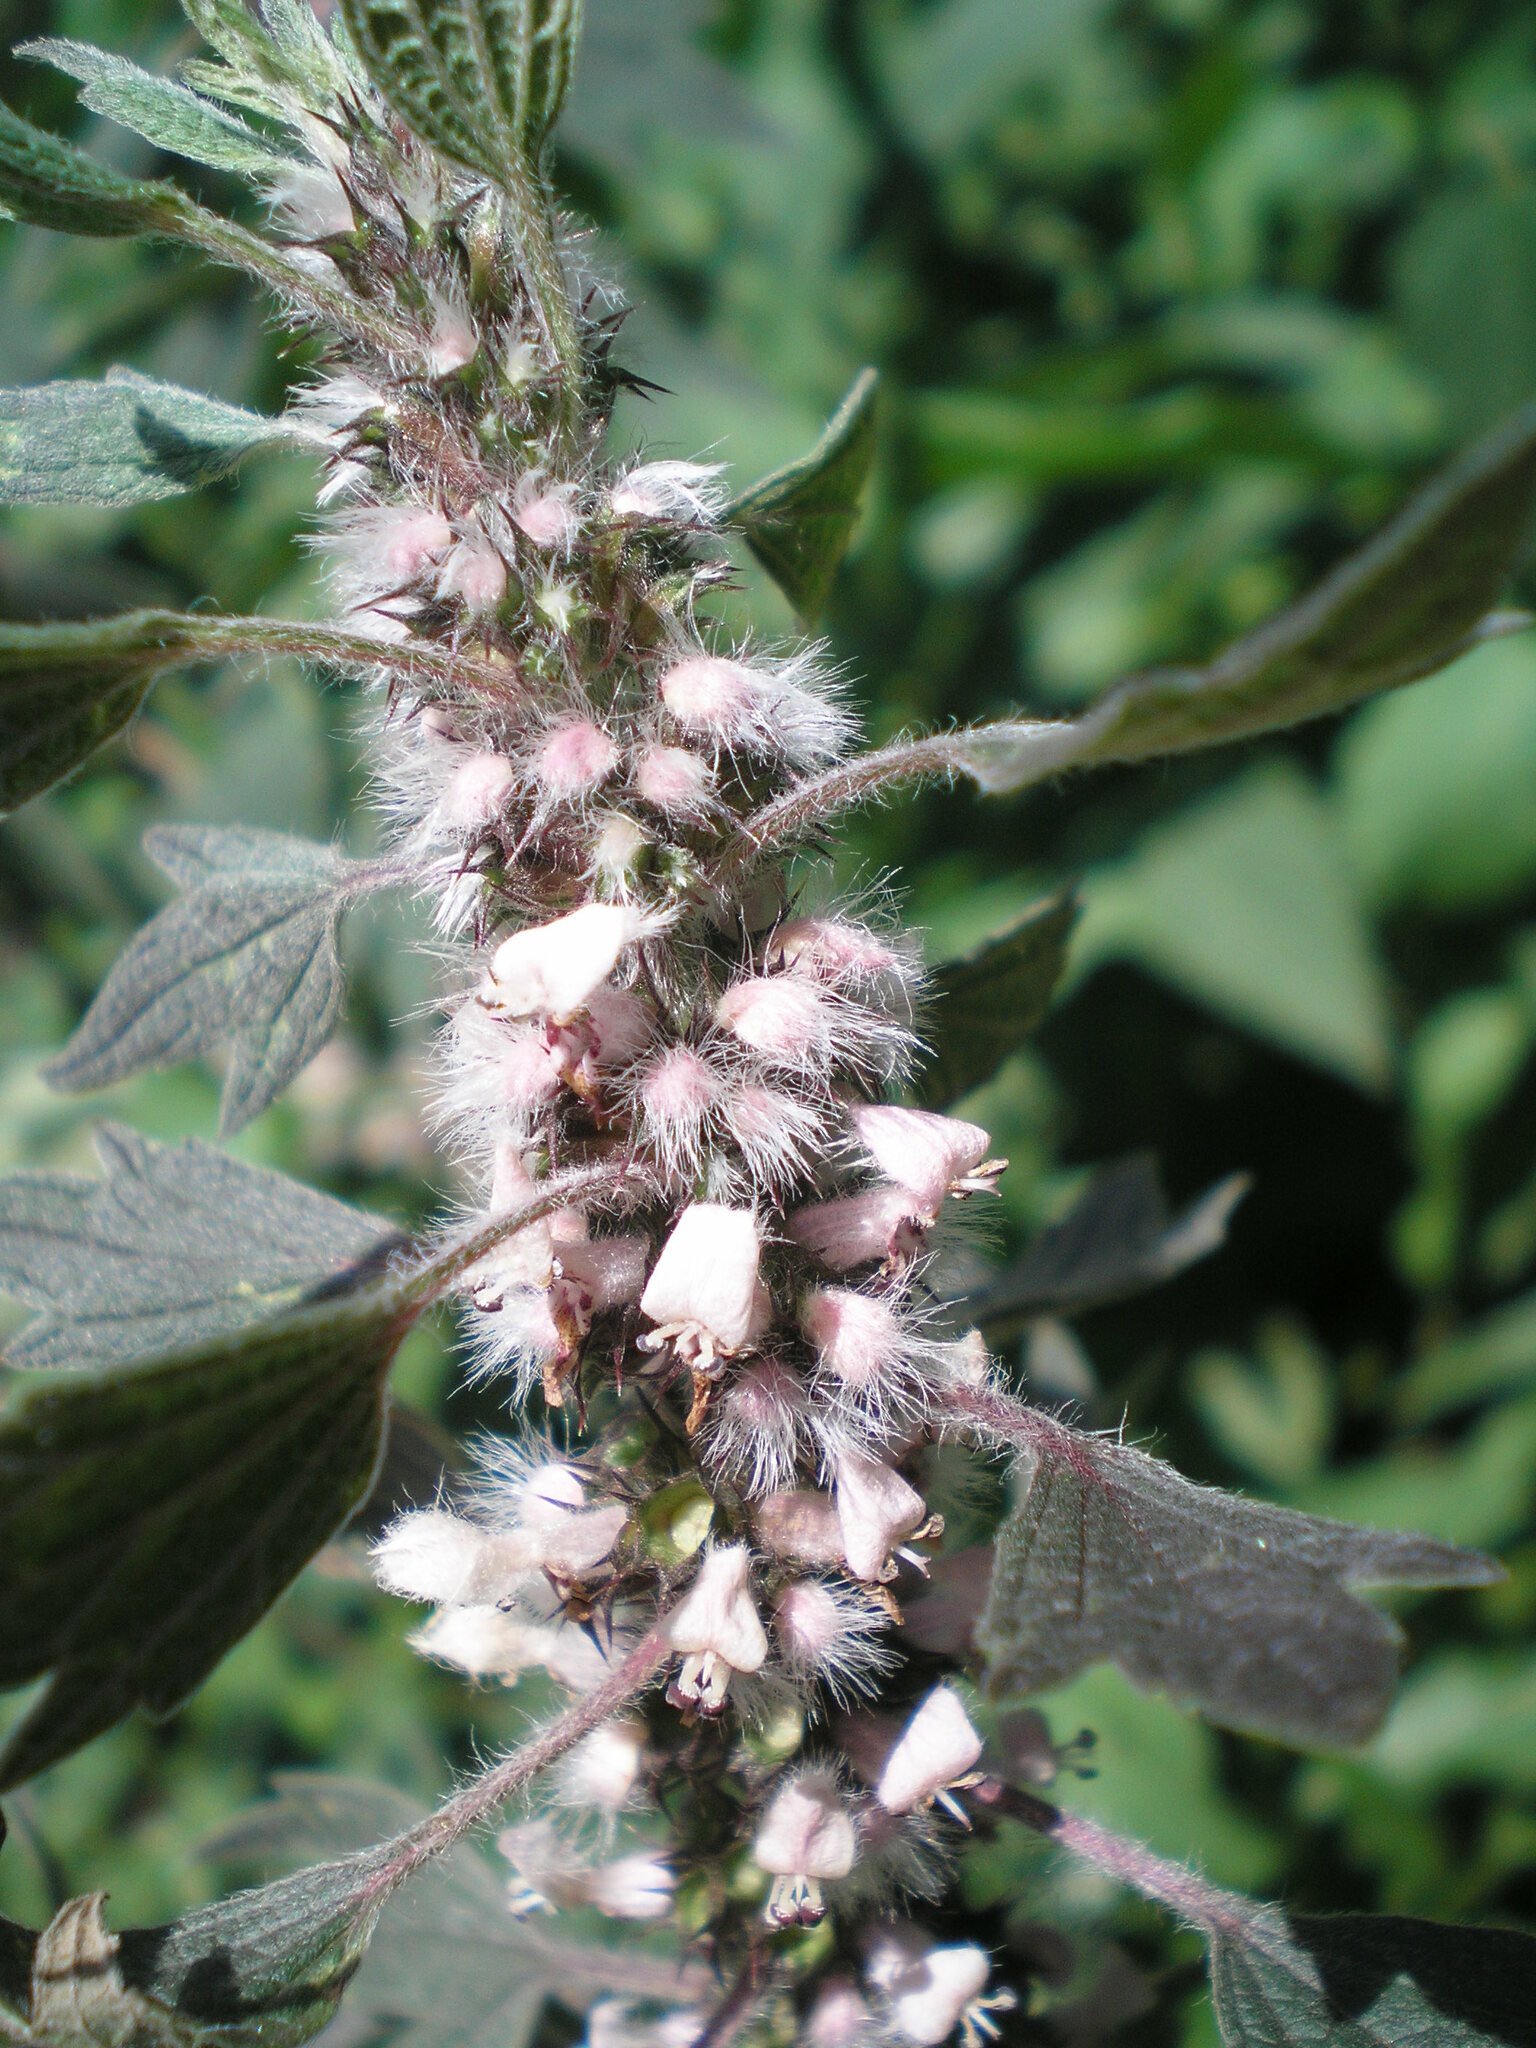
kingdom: Plantae
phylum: Tracheophyta
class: Magnoliopsida
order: Lamiales
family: Lamiaceae
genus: Leonurus
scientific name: Leonurus quinquelobatus
